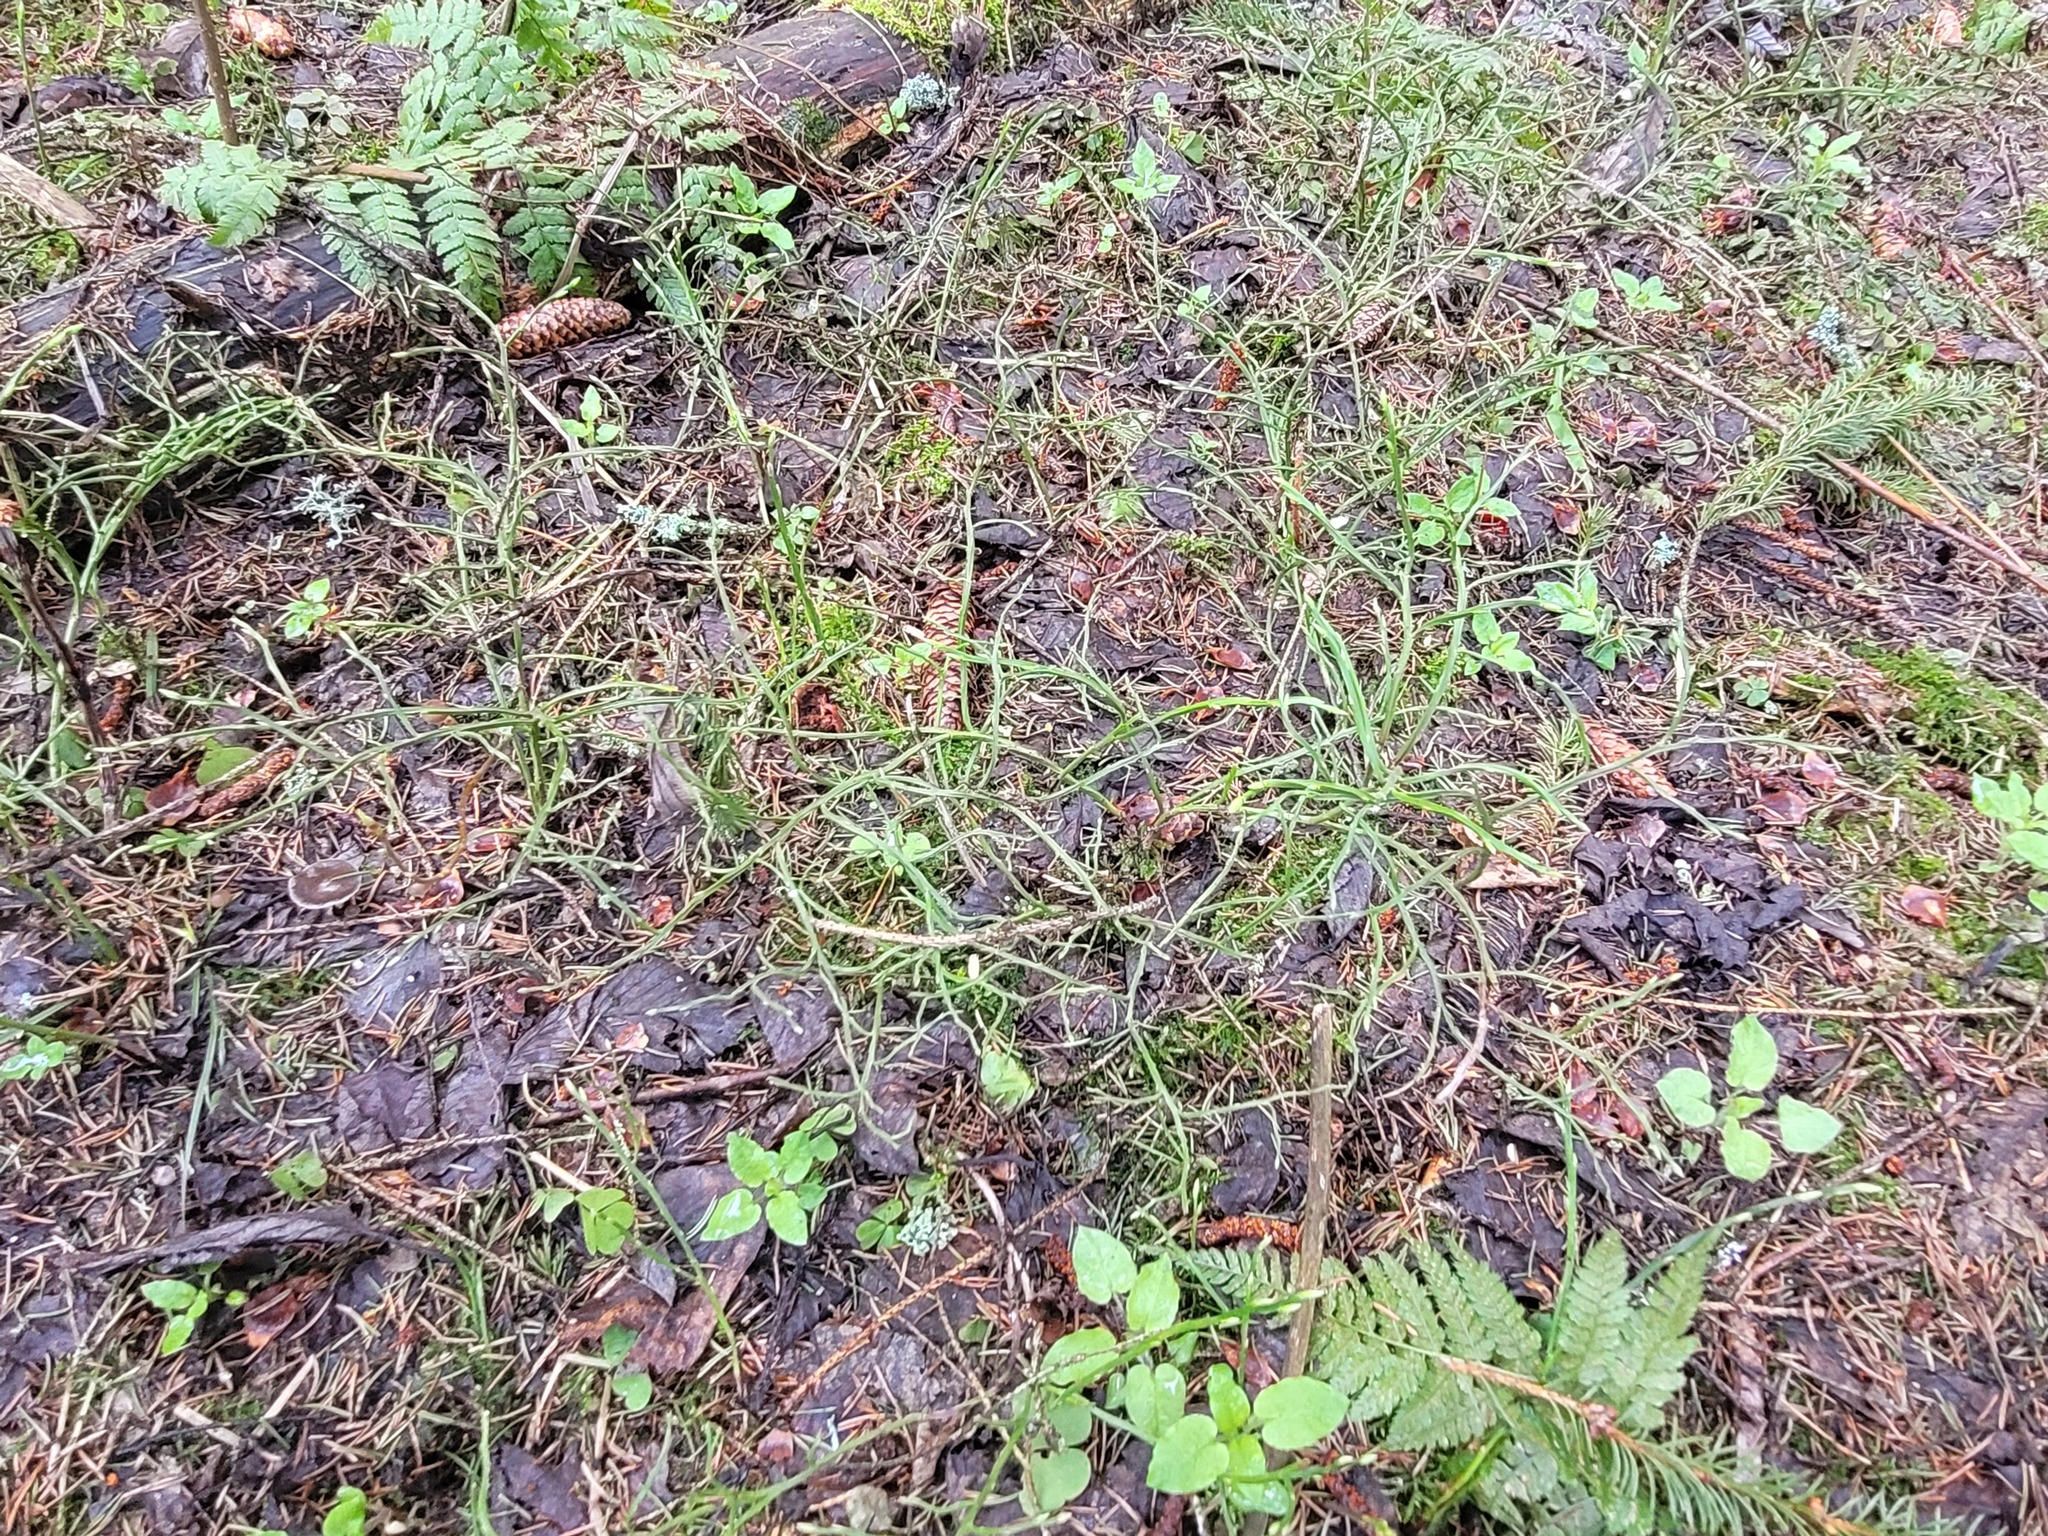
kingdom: Plantae
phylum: Tracheophyta
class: Magnoliopsida
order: Ericales
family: Ericaceae
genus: Vaccinium
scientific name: Vaccinium myrtillus
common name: Bilberry
